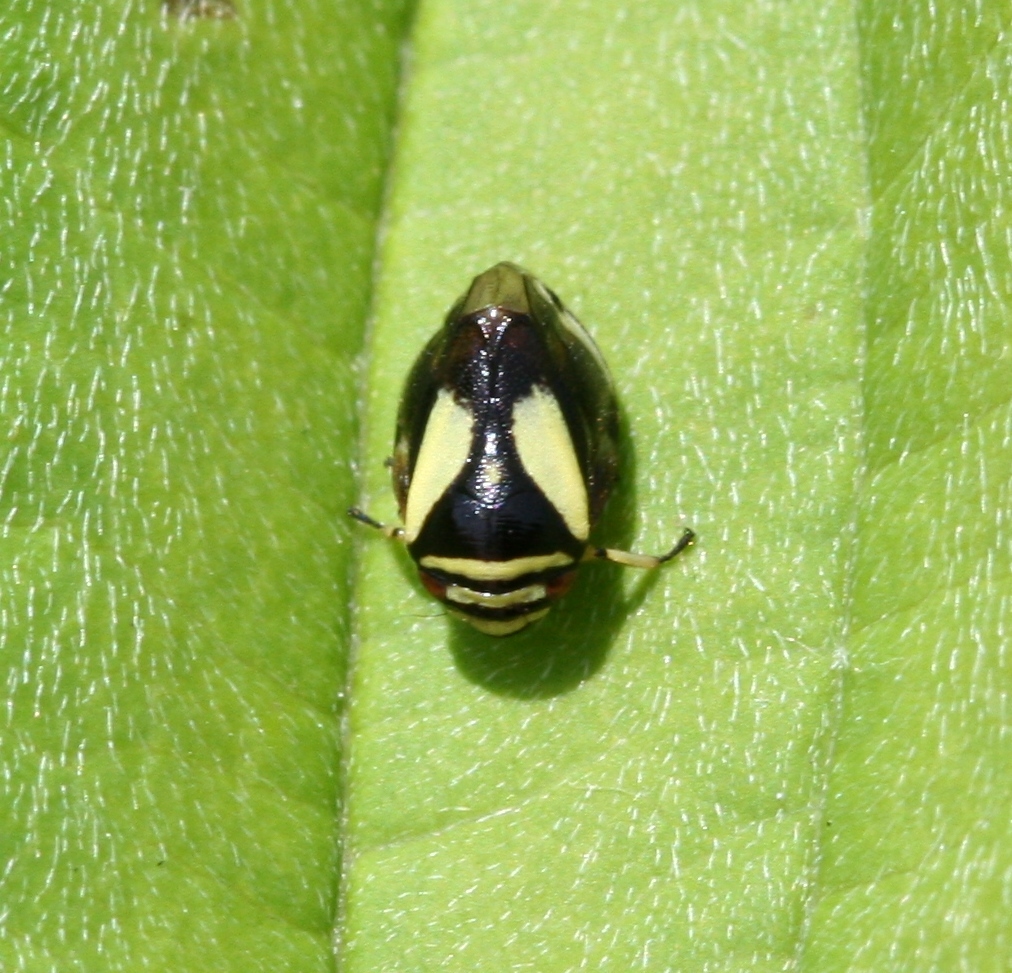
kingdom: Animalia
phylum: Arthropoda
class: Insecta
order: Hemiptera
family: Clastopteridae
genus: Clastoptera
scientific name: Clastoptera proteus
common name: Dogwood spittlebug
